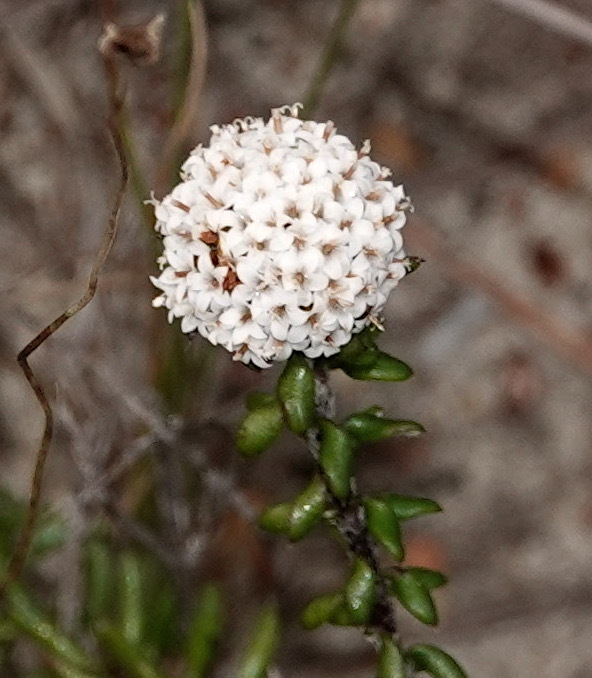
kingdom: Plantae
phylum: Tracheophyta
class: Magnoliopsida
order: Asterales
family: Asteraceae
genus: Stoebe
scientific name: Stoebe cyathuloides
